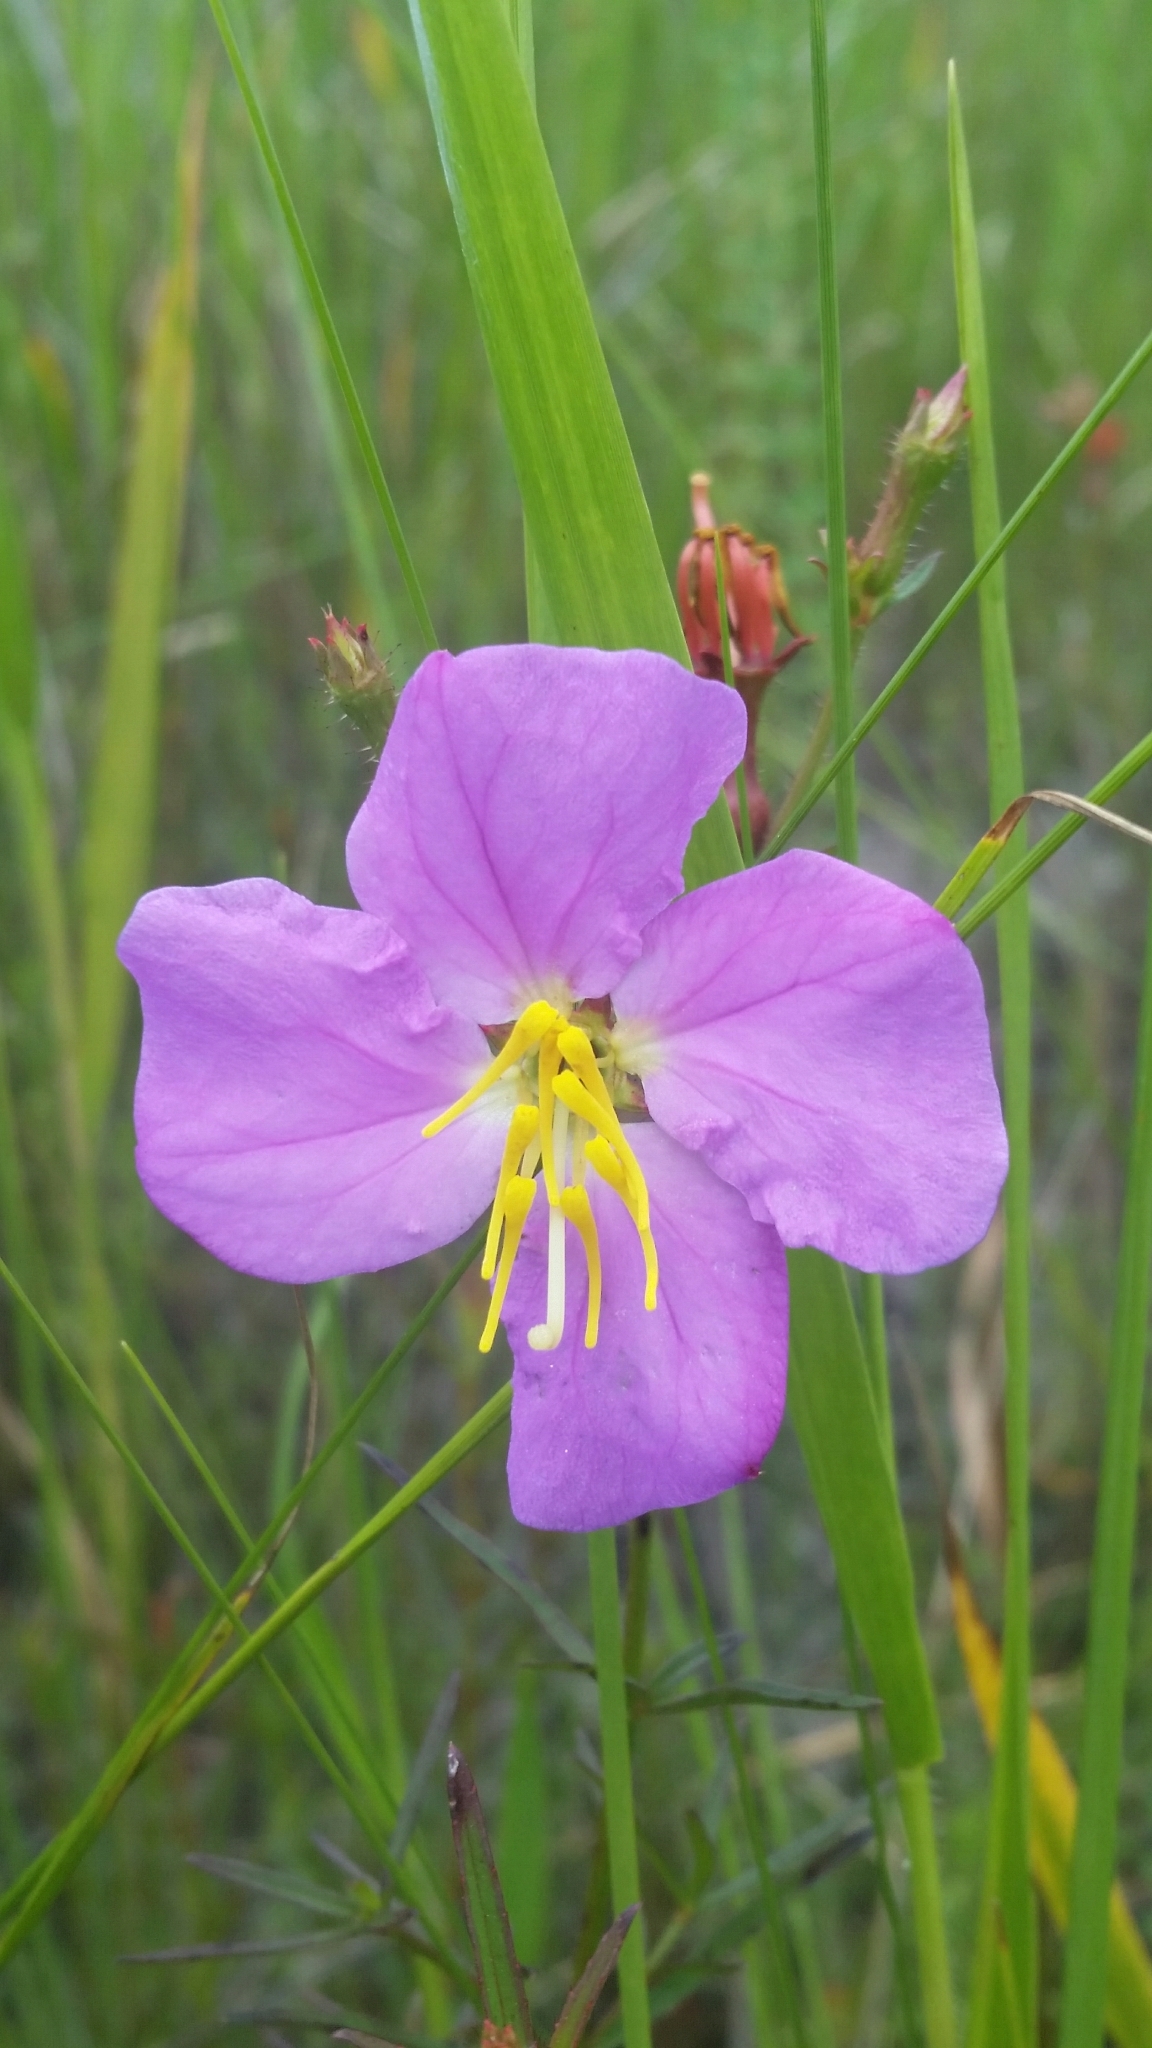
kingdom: Plantae
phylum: Tracheophyta
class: Magnoliopsida
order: Myrtales
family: Melastomataceae
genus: Rhexia
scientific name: Rhexia cubensis
